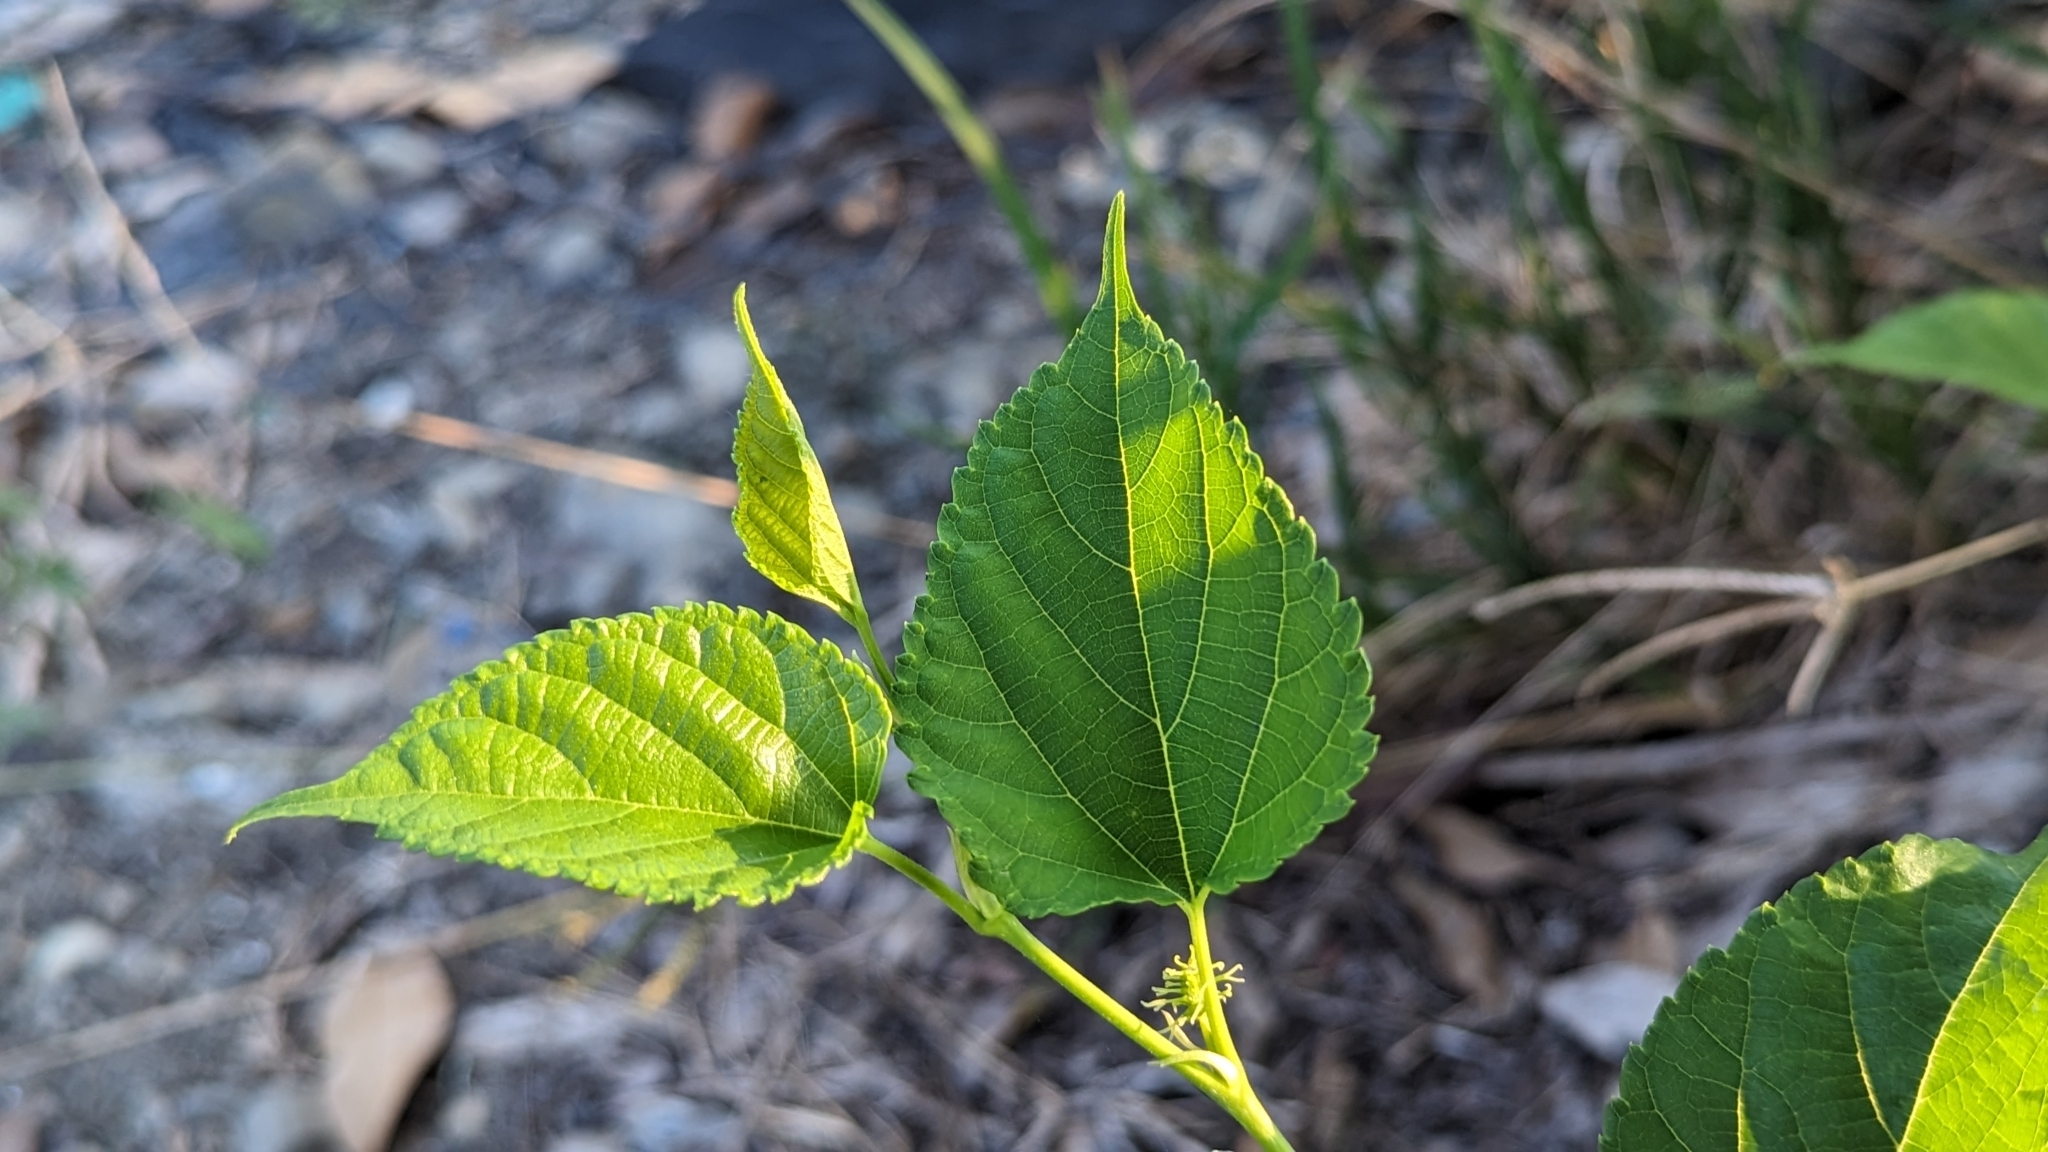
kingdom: Plantae
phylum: Tracheophyta
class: Magnoliopsida
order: Rosales
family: Moraceae
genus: Morus
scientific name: Morus indica
